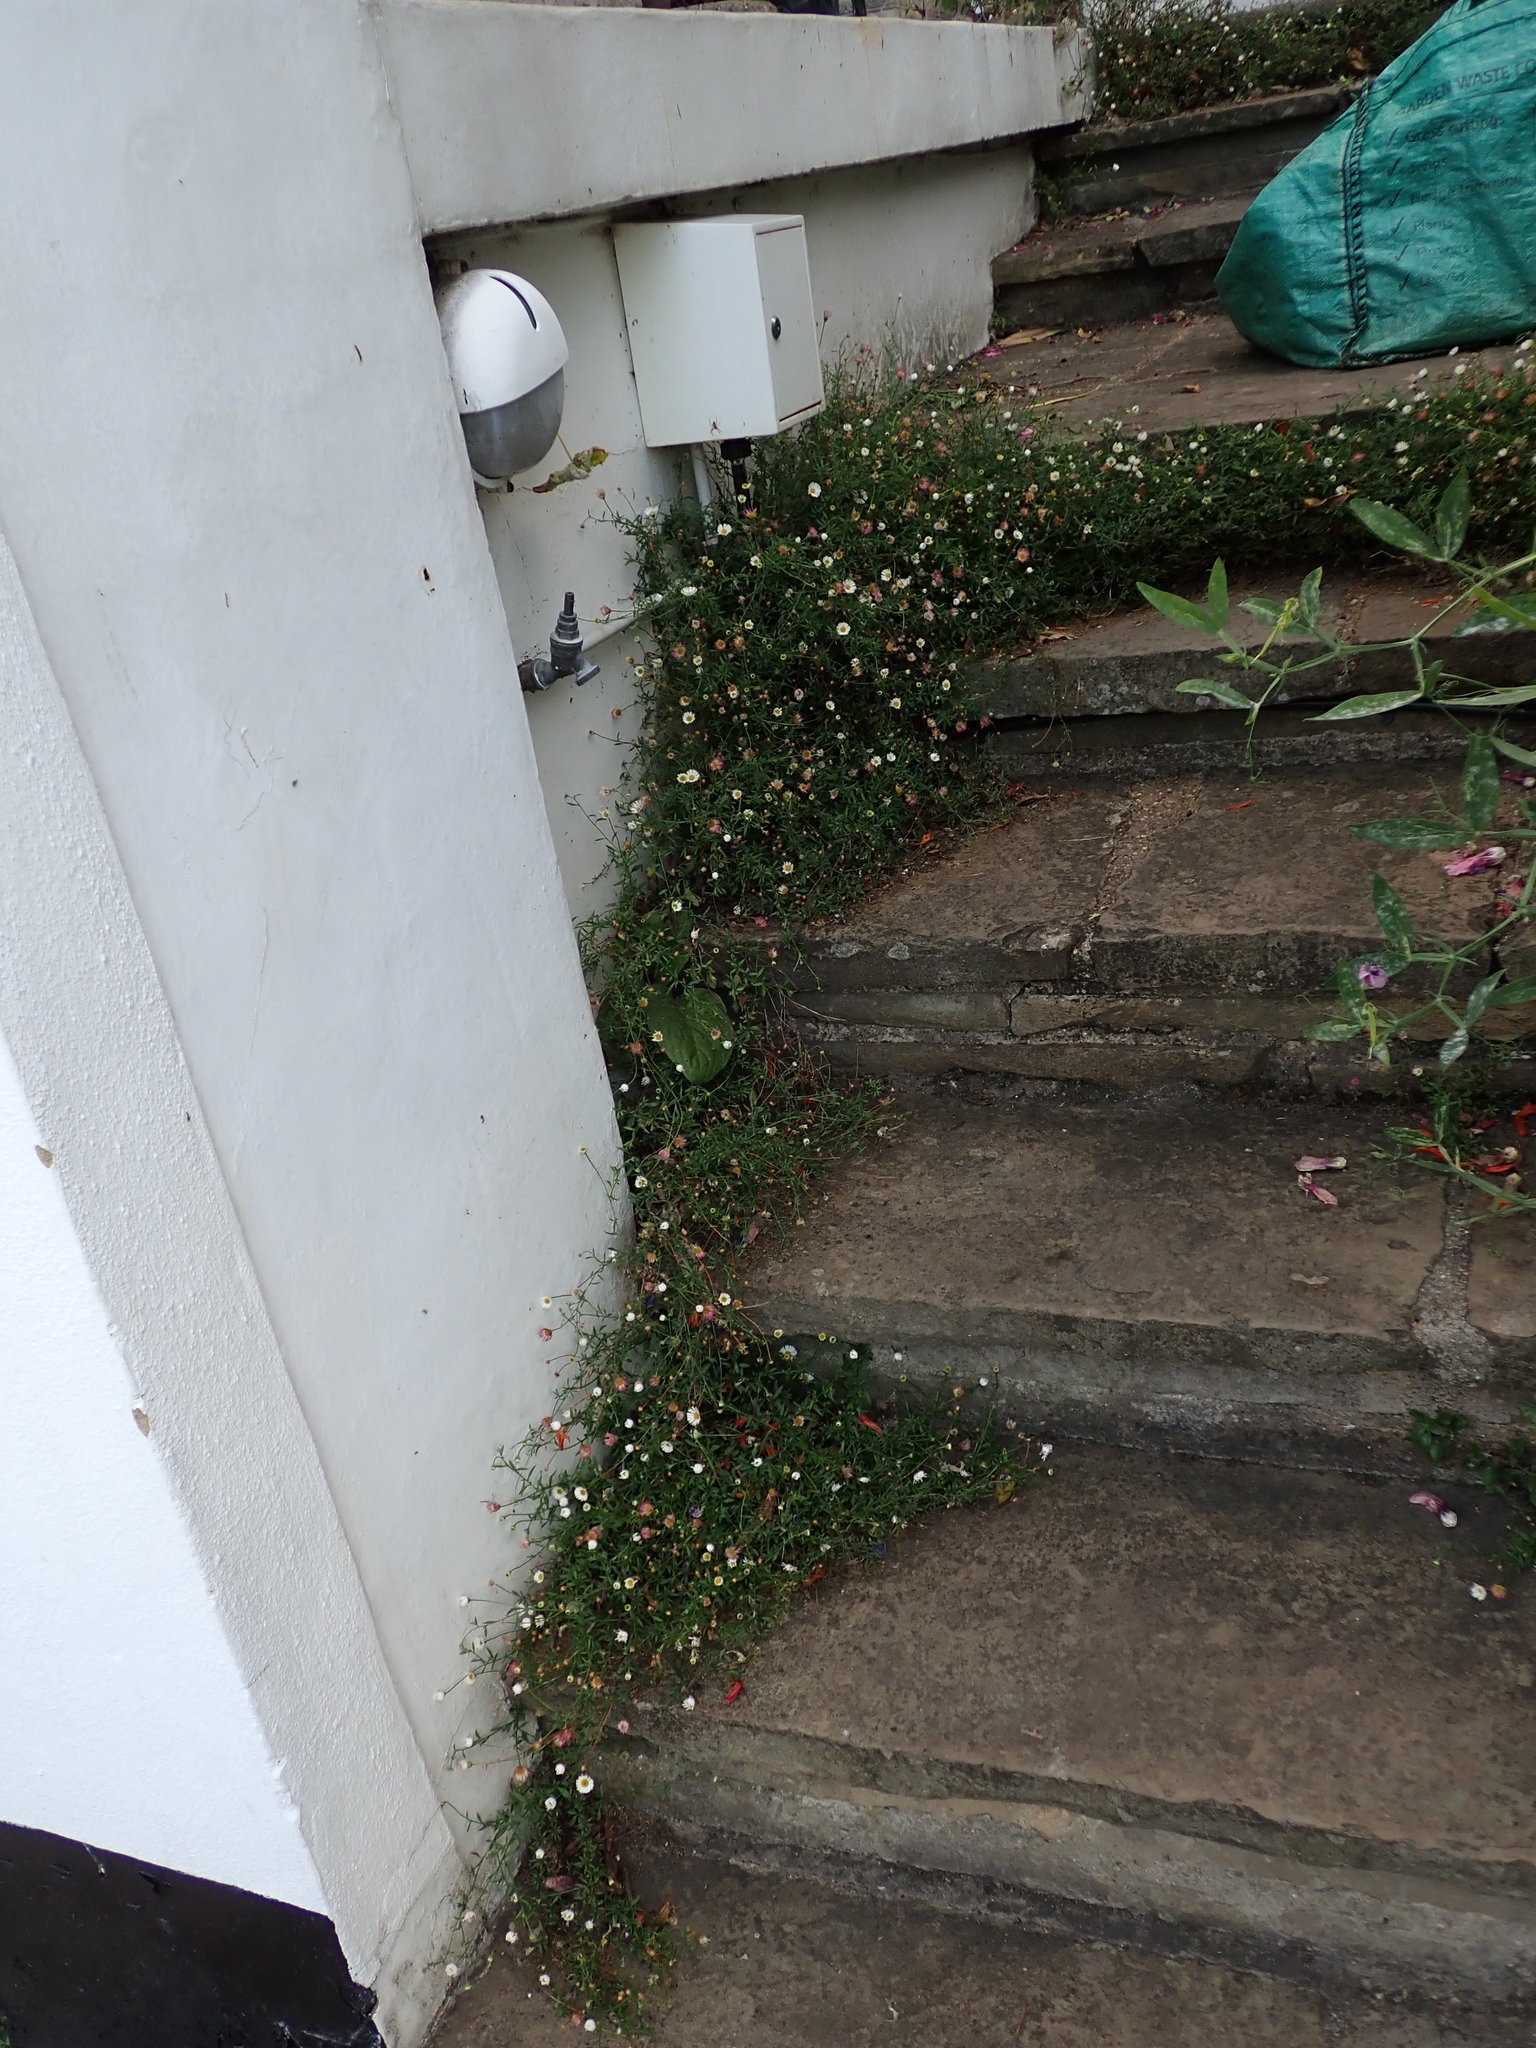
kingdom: Plantae
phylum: Tracheophyta
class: Magnoliopsida
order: Asterales
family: Asteraceae
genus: Erigeron
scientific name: Erigeron karvinskianus
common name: Mexican fleabane
